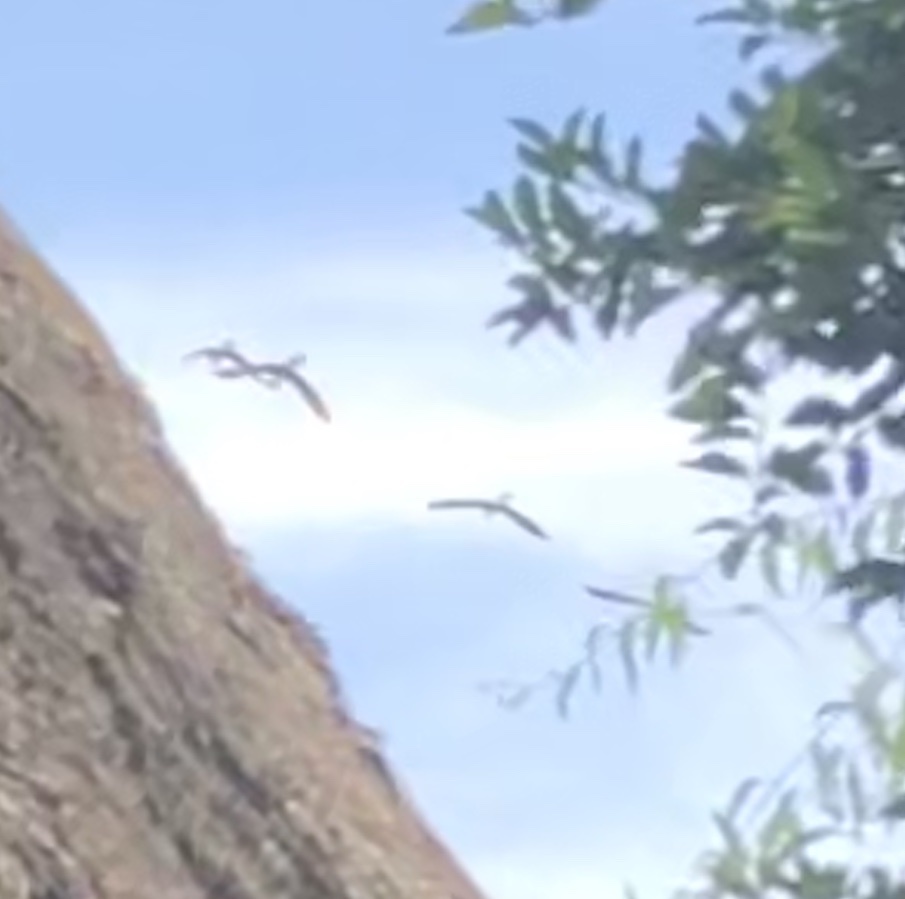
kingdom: Animalia
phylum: Chordata
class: Aves
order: Psittaciformes
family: Psittacidae
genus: Ara
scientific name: Ara chloropterus
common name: Red-and-green macaw
